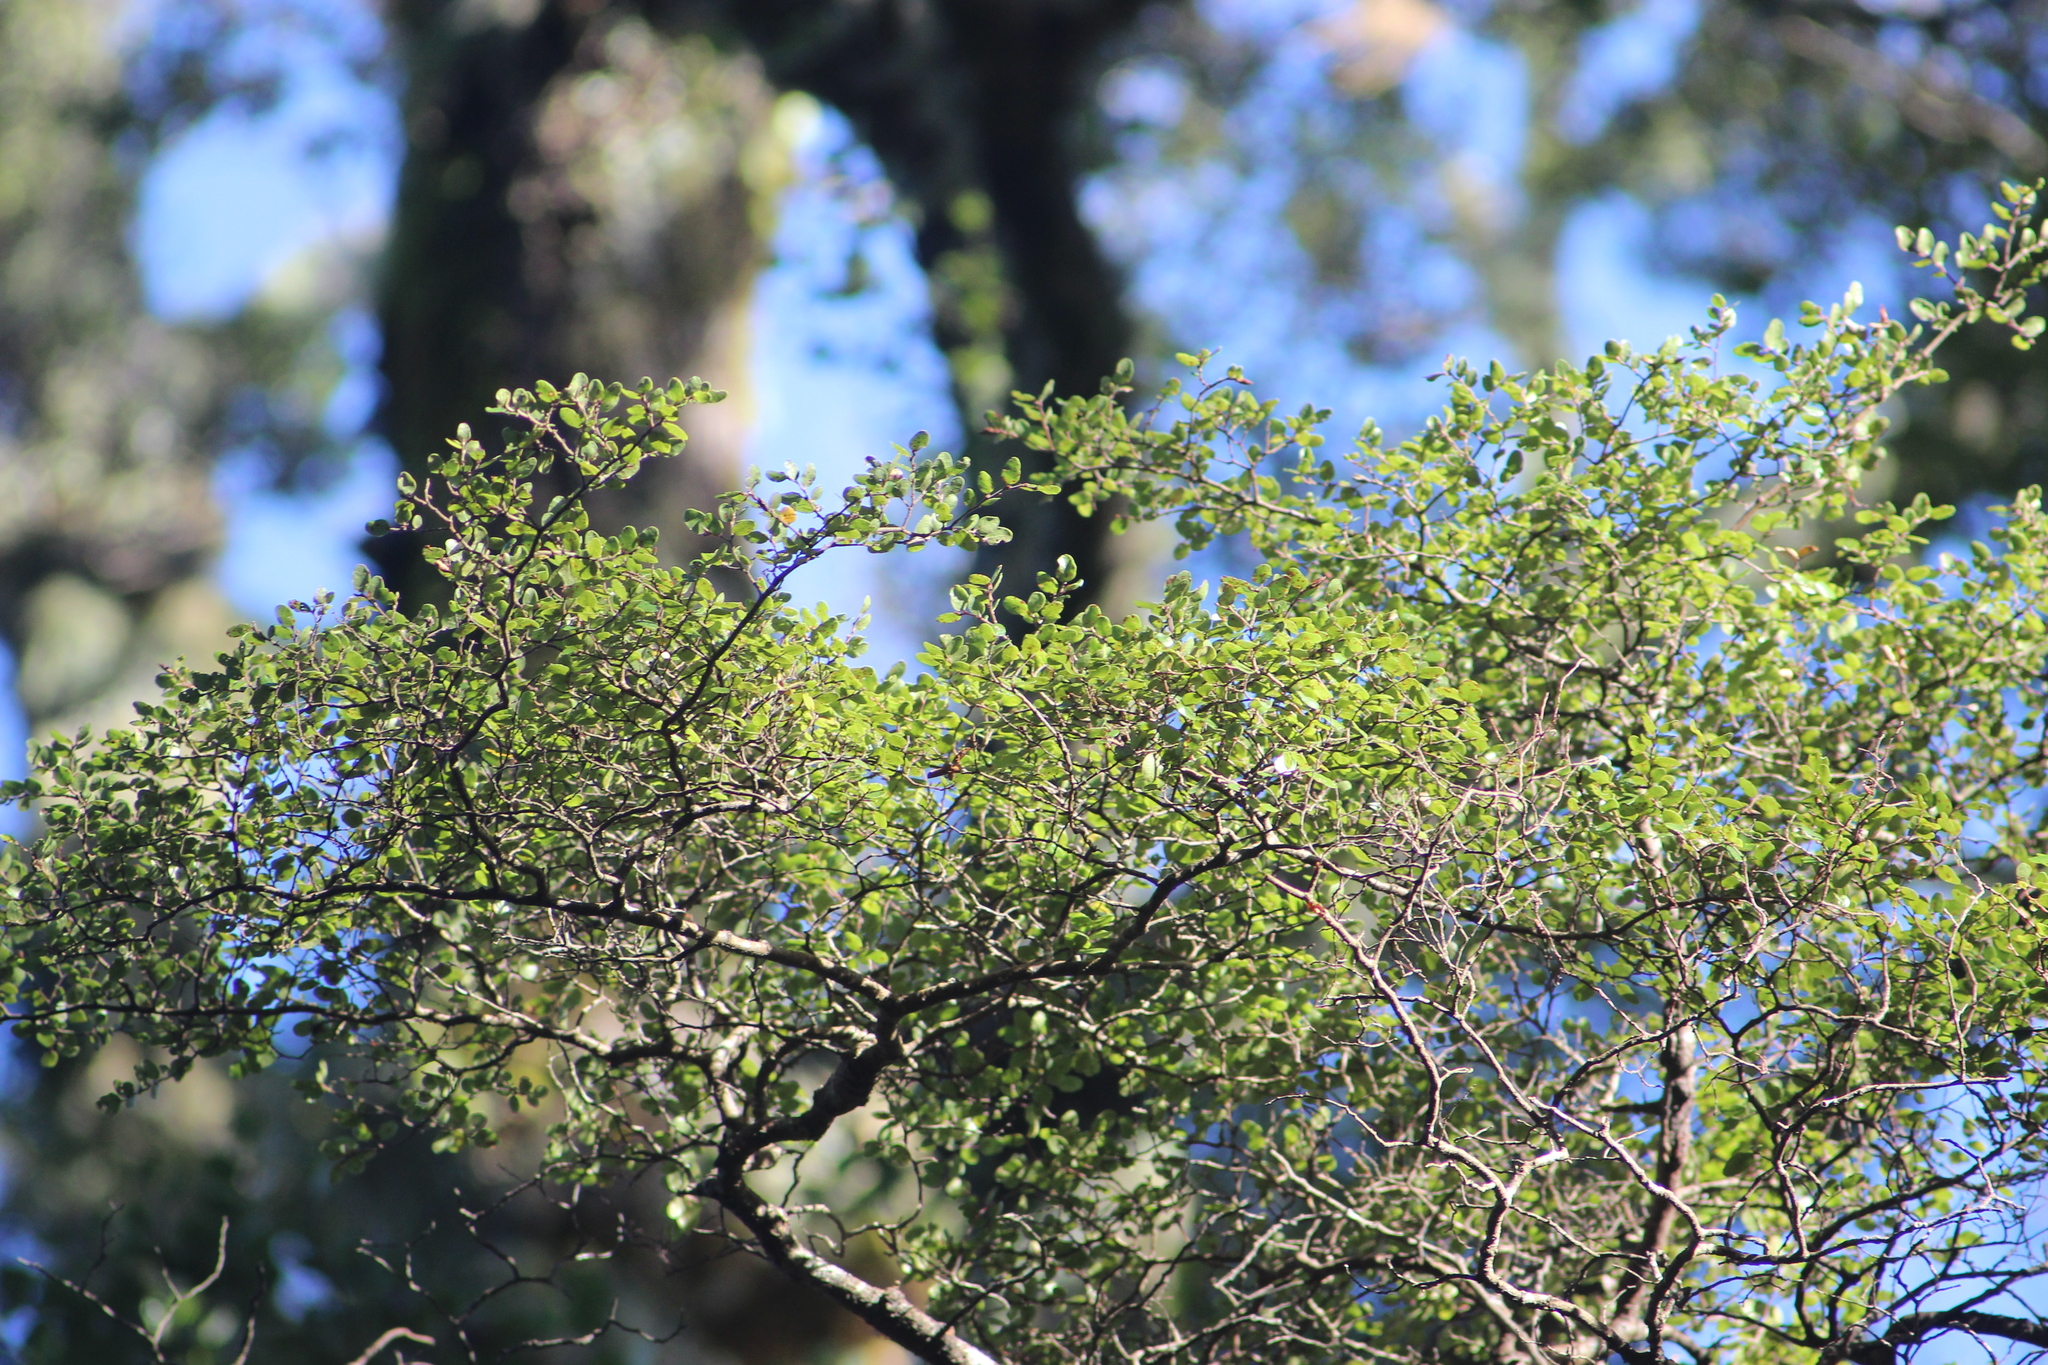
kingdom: Plantae
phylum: Tracheophyta
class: Magnoliopsida
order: Fagales
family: Nothofagaceae
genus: Nothofagus
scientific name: Nothofagus solandri
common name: Black beech
